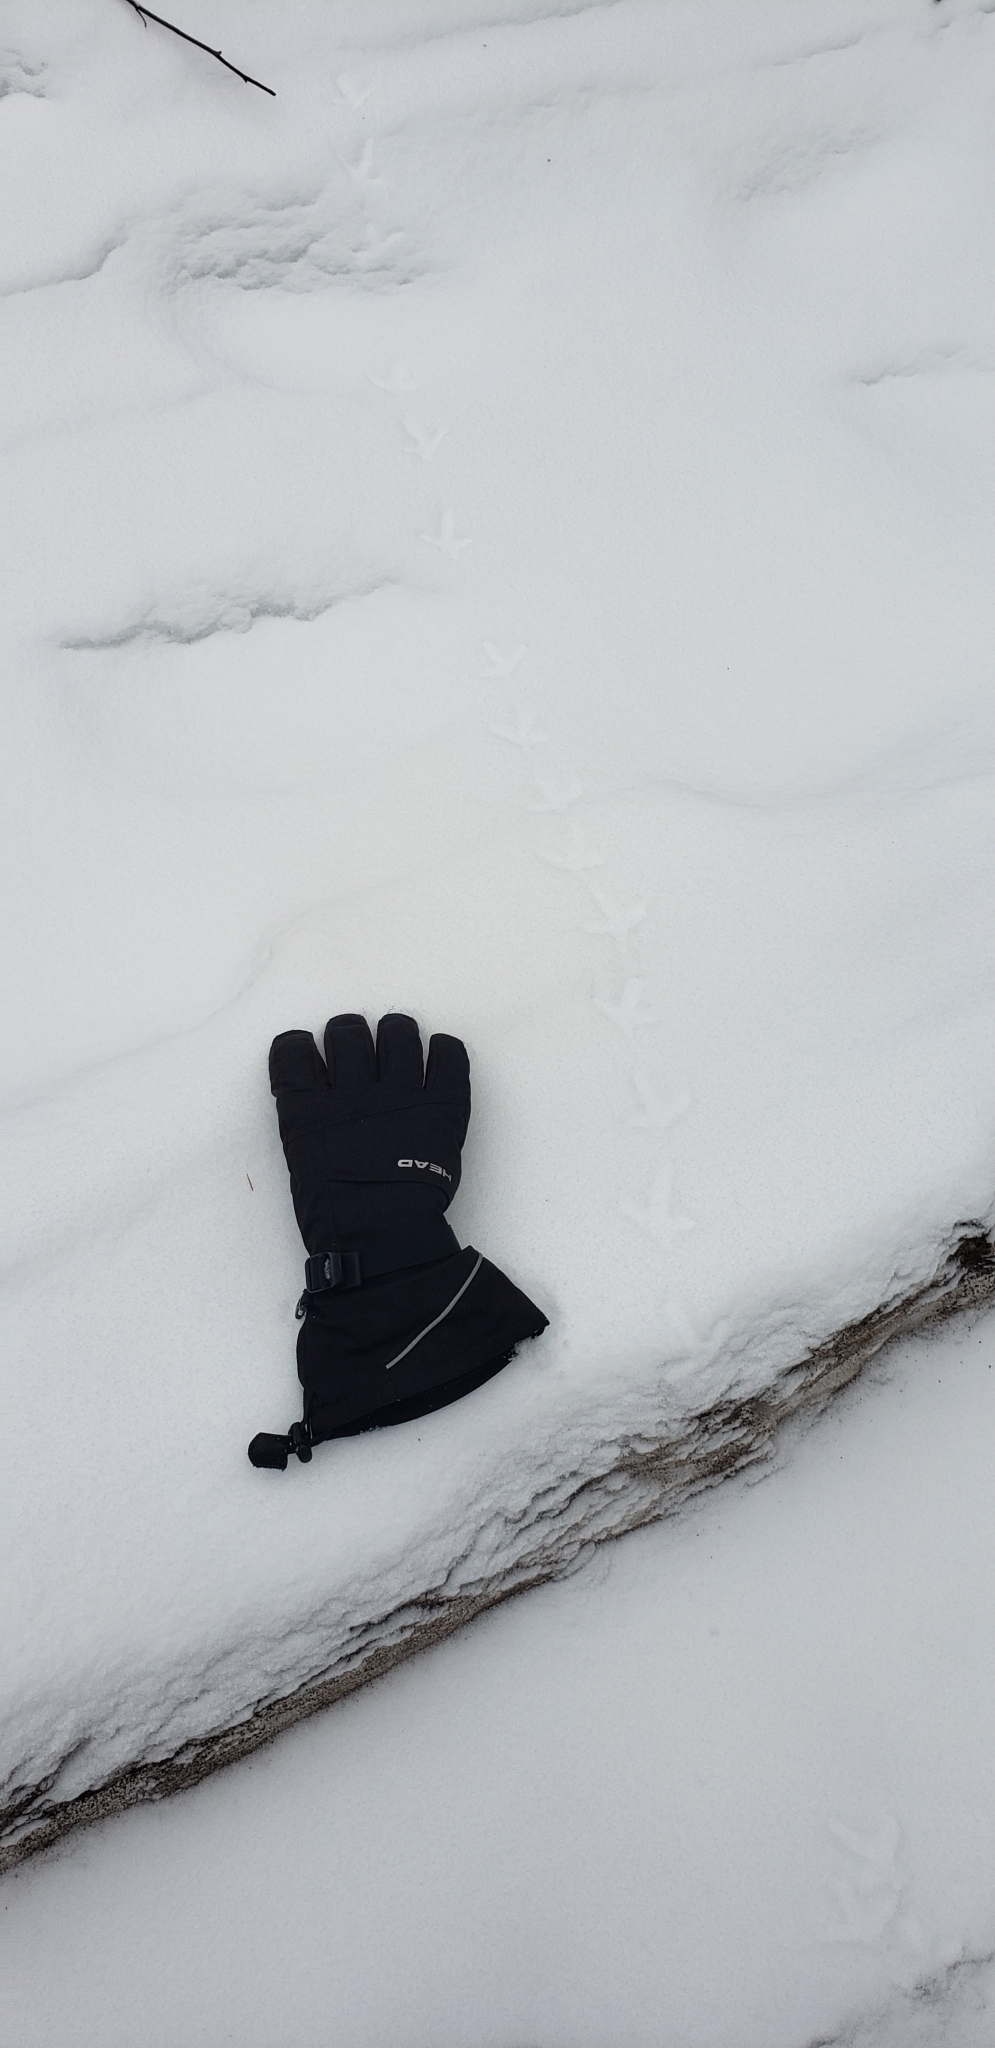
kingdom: Animalia
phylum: Chordata
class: Aves
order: Galliformes
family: Phasianidae
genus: Bonasa
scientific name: Bonasa umbellus
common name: Ruffed grouse
